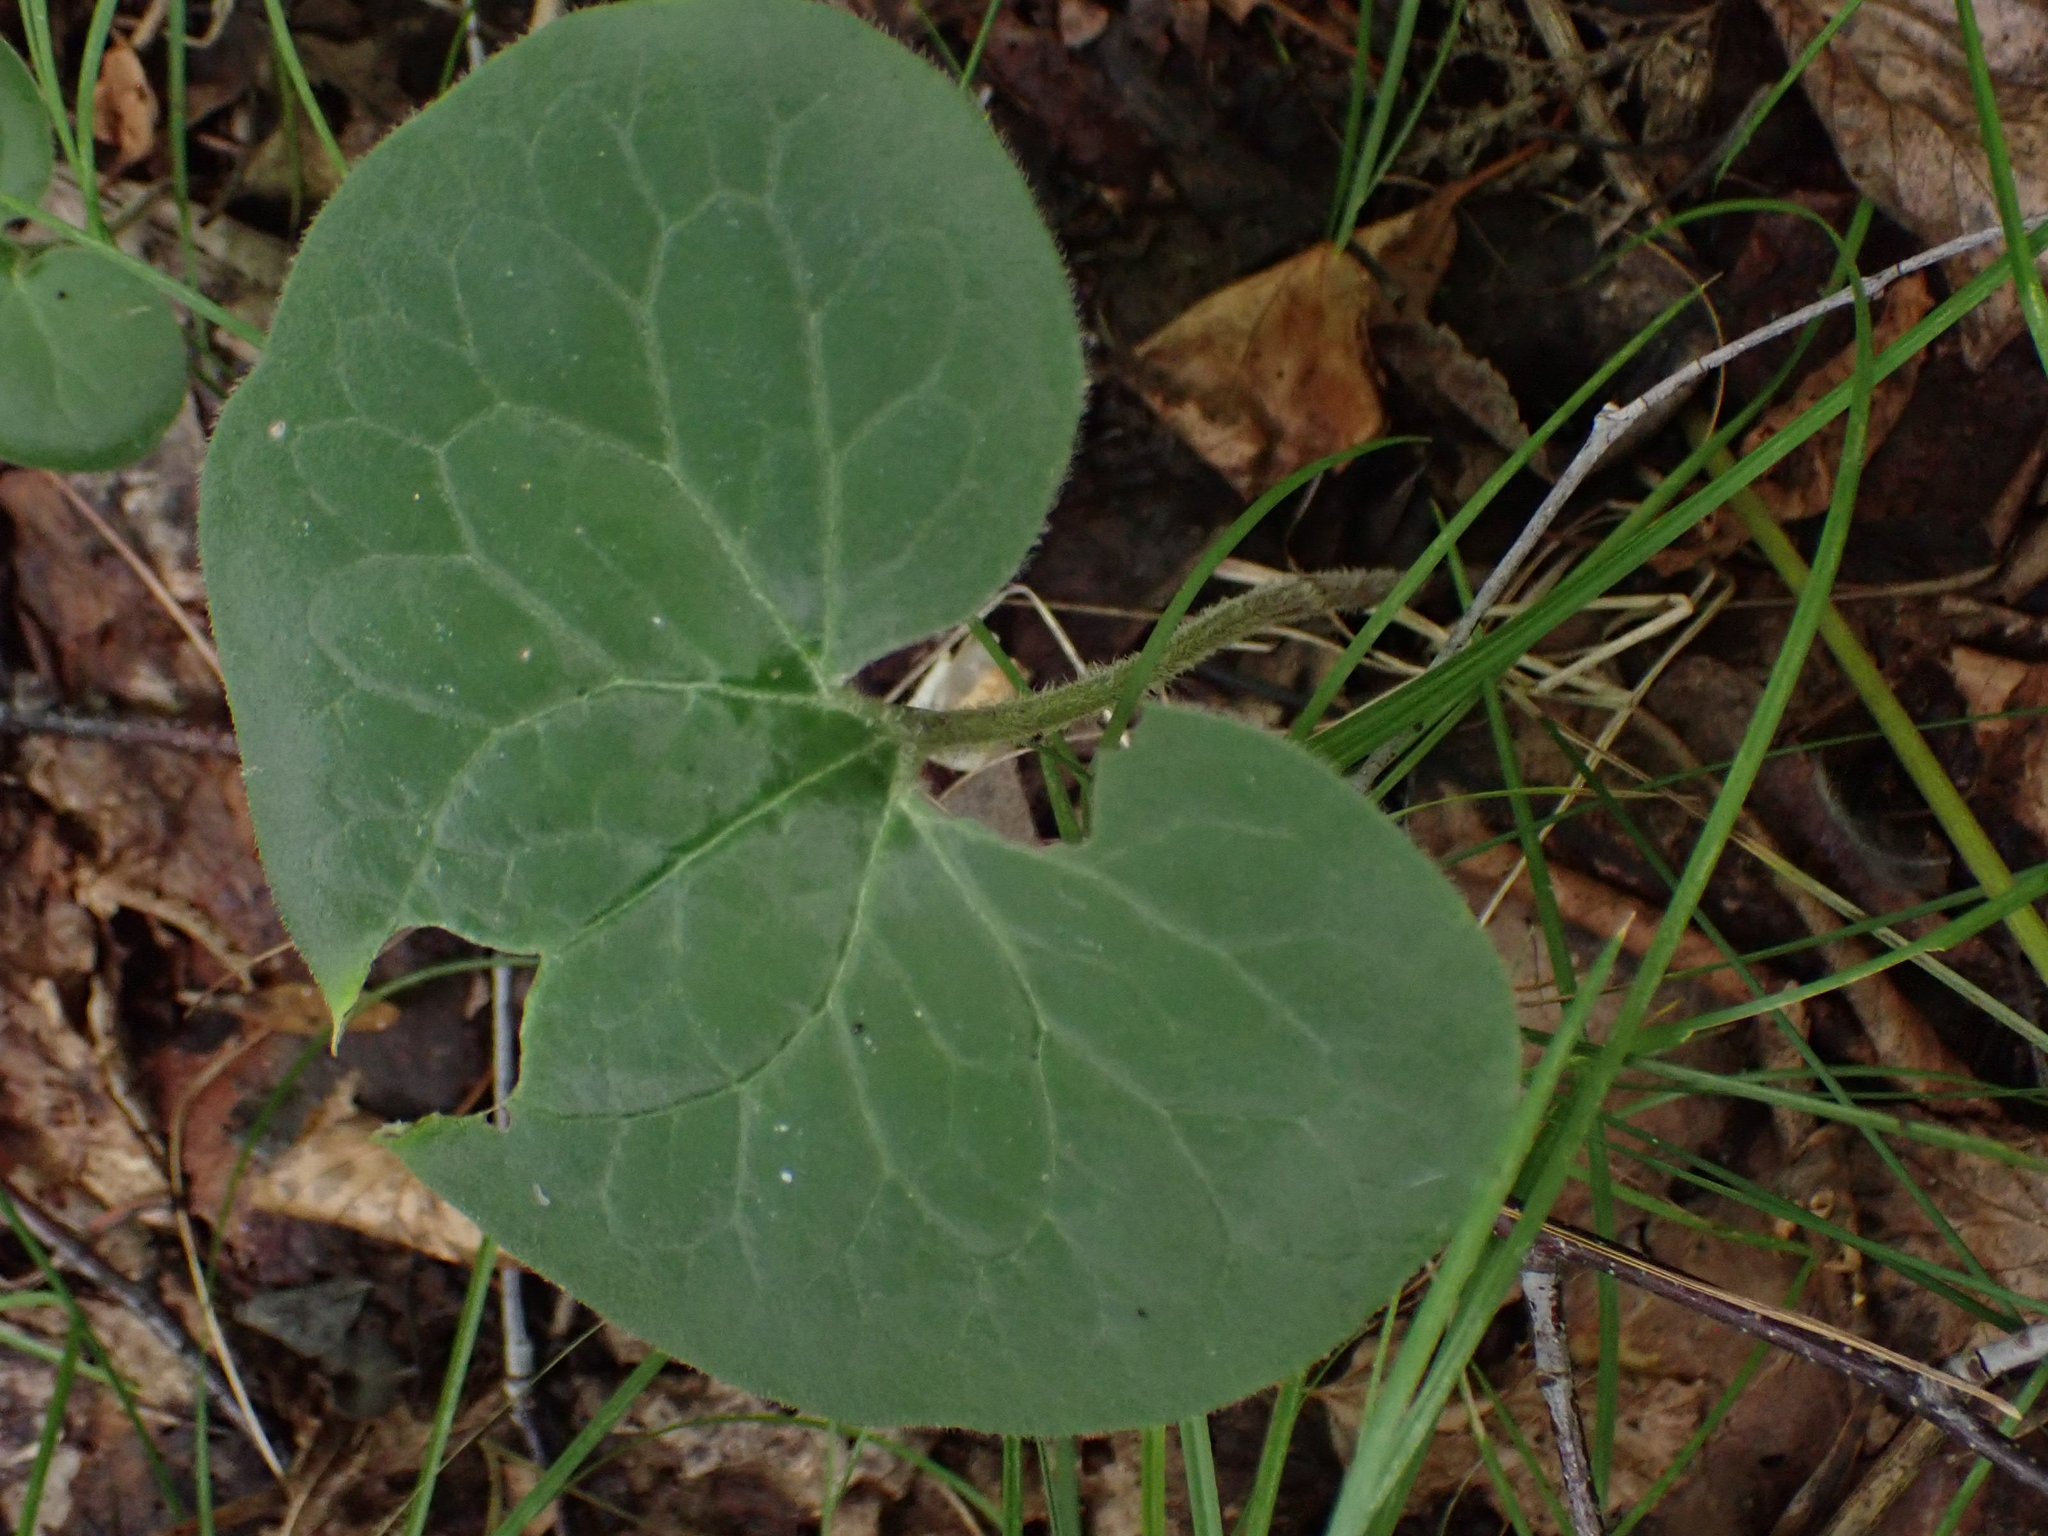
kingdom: Plantae
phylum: Tracheophyta
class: Magnoliopsida
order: Piperales
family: Aristolochiaceae
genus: Asarum
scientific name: Asarum canadense
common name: Wild ginger
